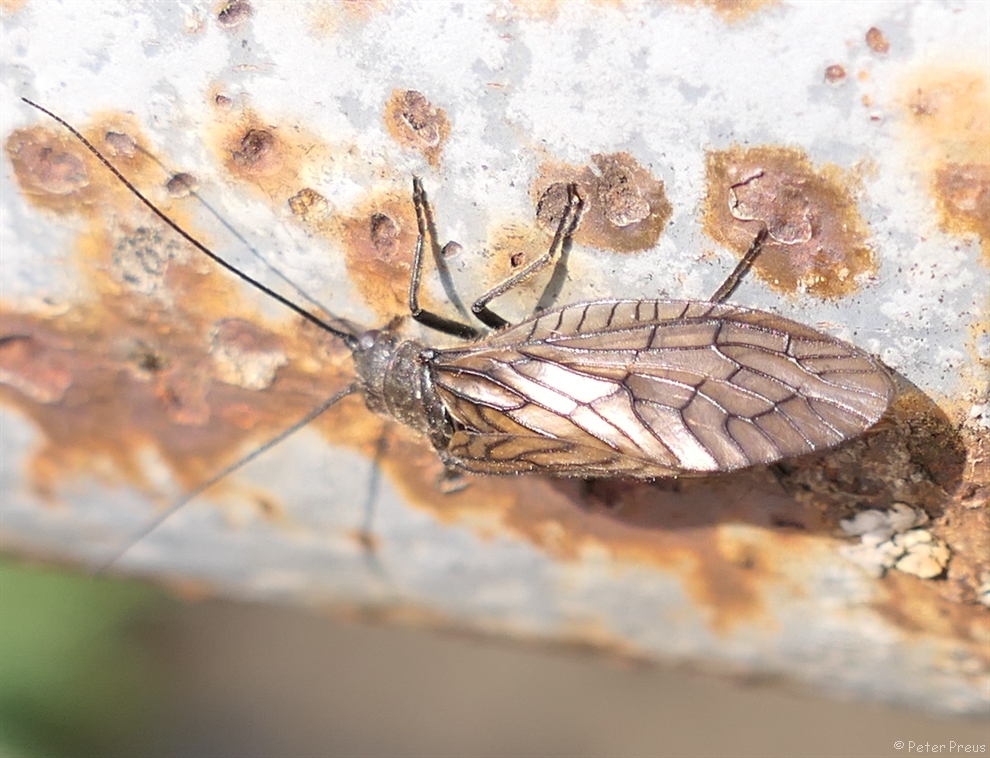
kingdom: Animalia
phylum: Arthropoda
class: Insecta
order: Megaloptera
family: Sialidae
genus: Sialis
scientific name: Sialis
